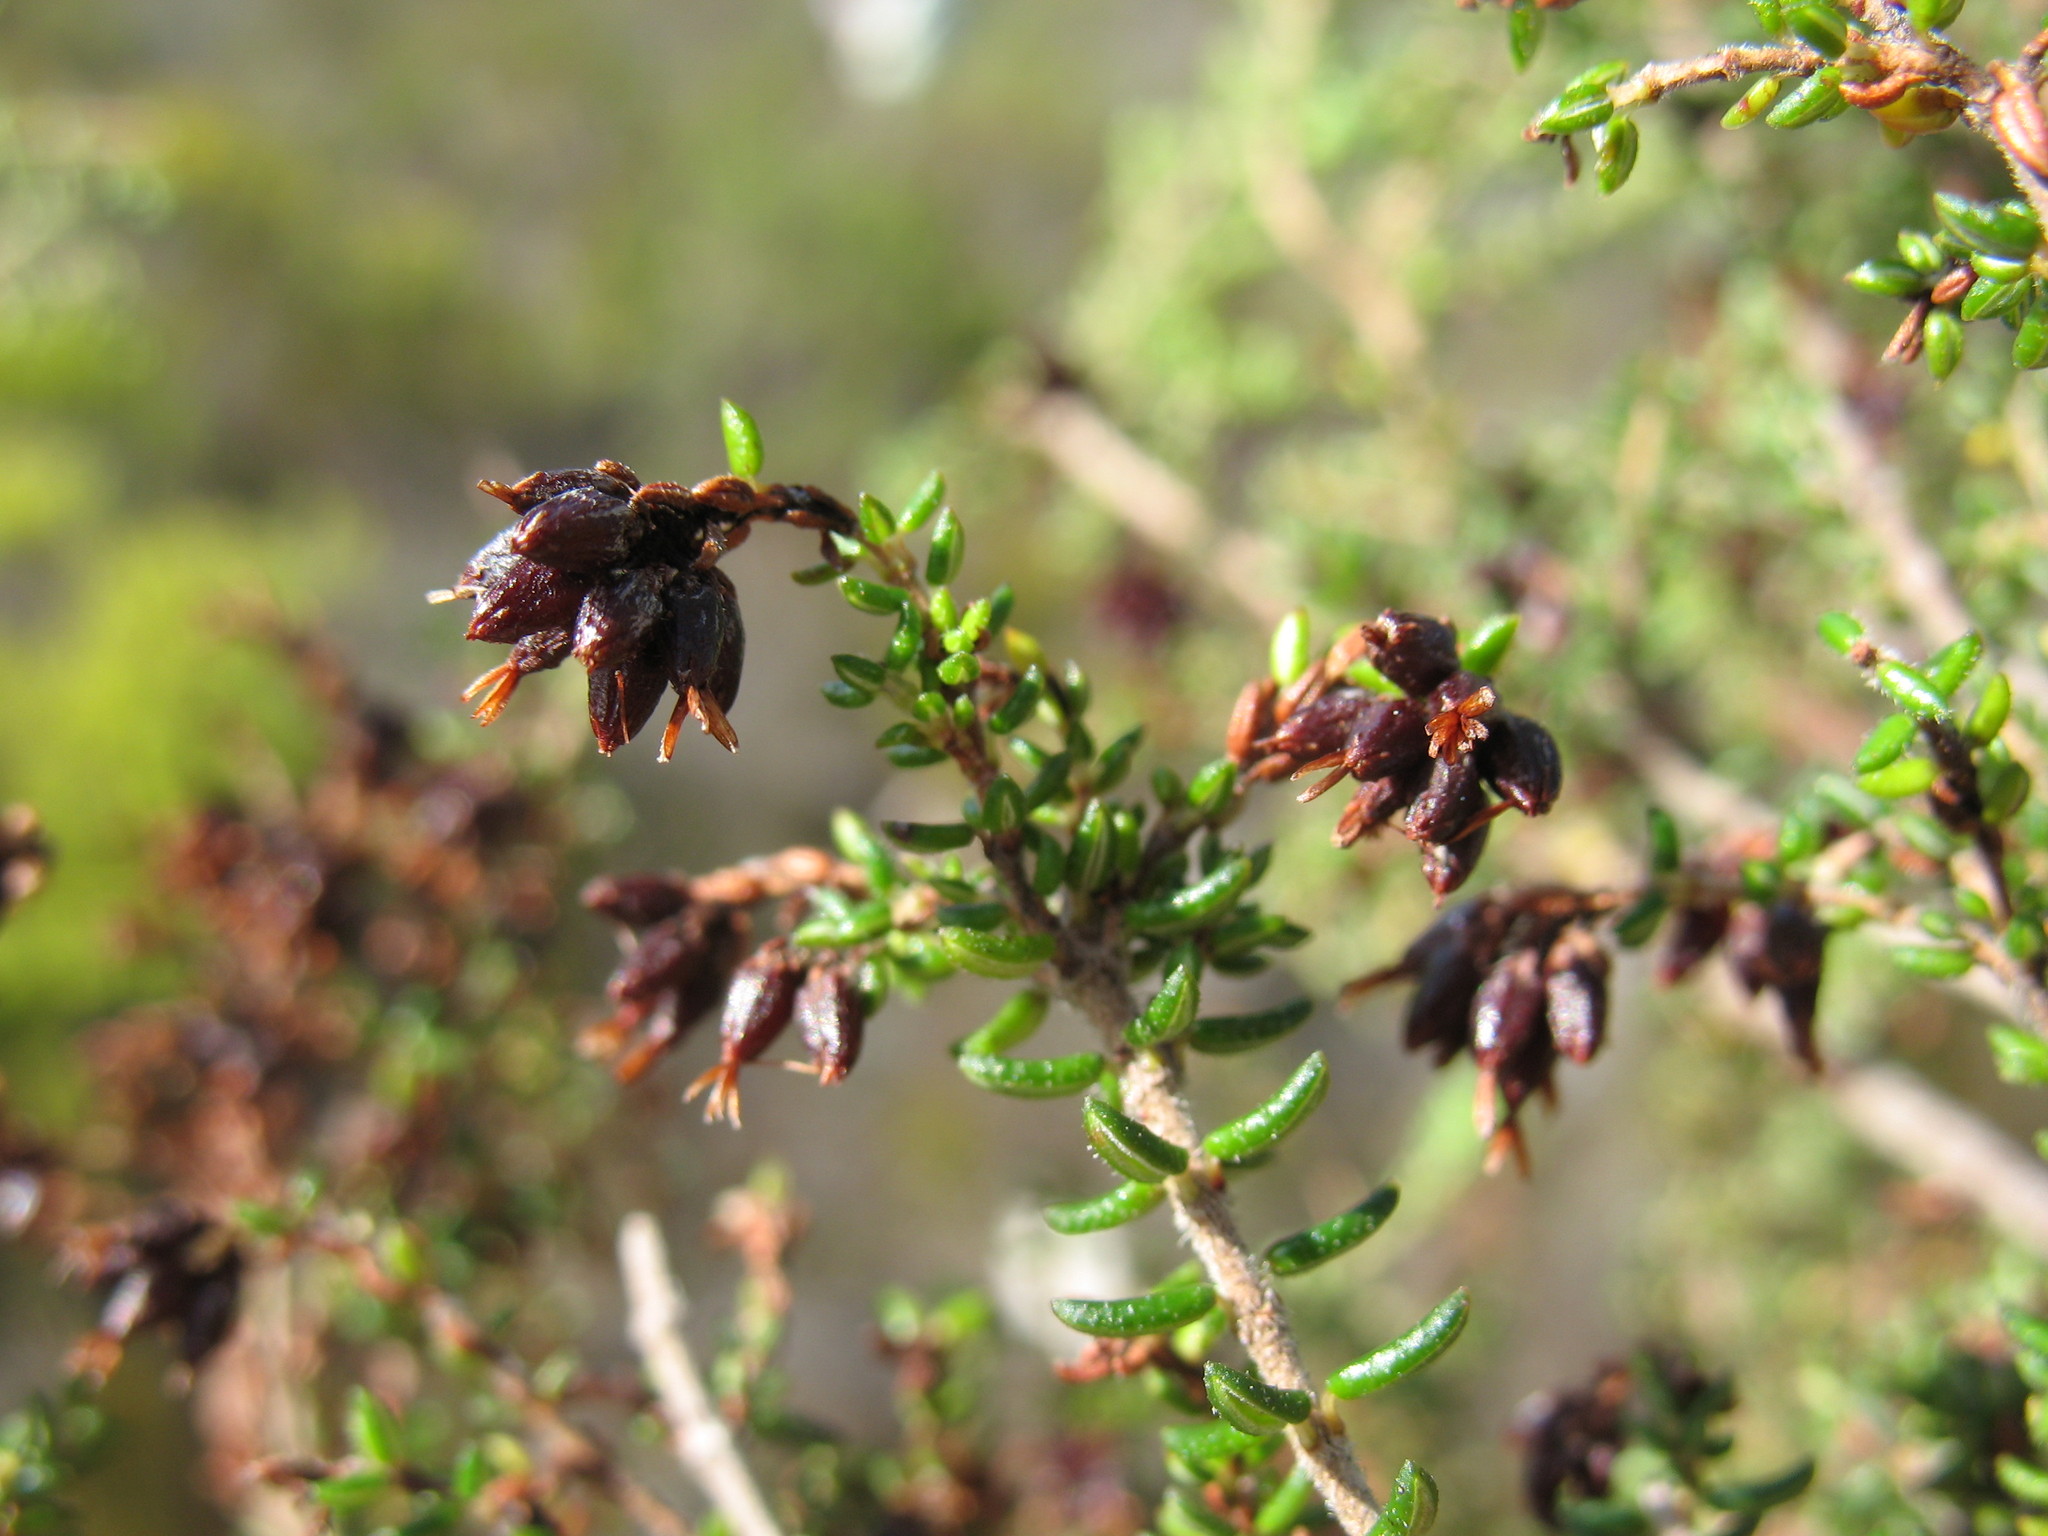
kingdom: Plantae
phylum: Tracheophyta
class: Magnoliopsida
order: Ericales
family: Ericaceae
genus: Erica
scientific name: Erica interrupta
